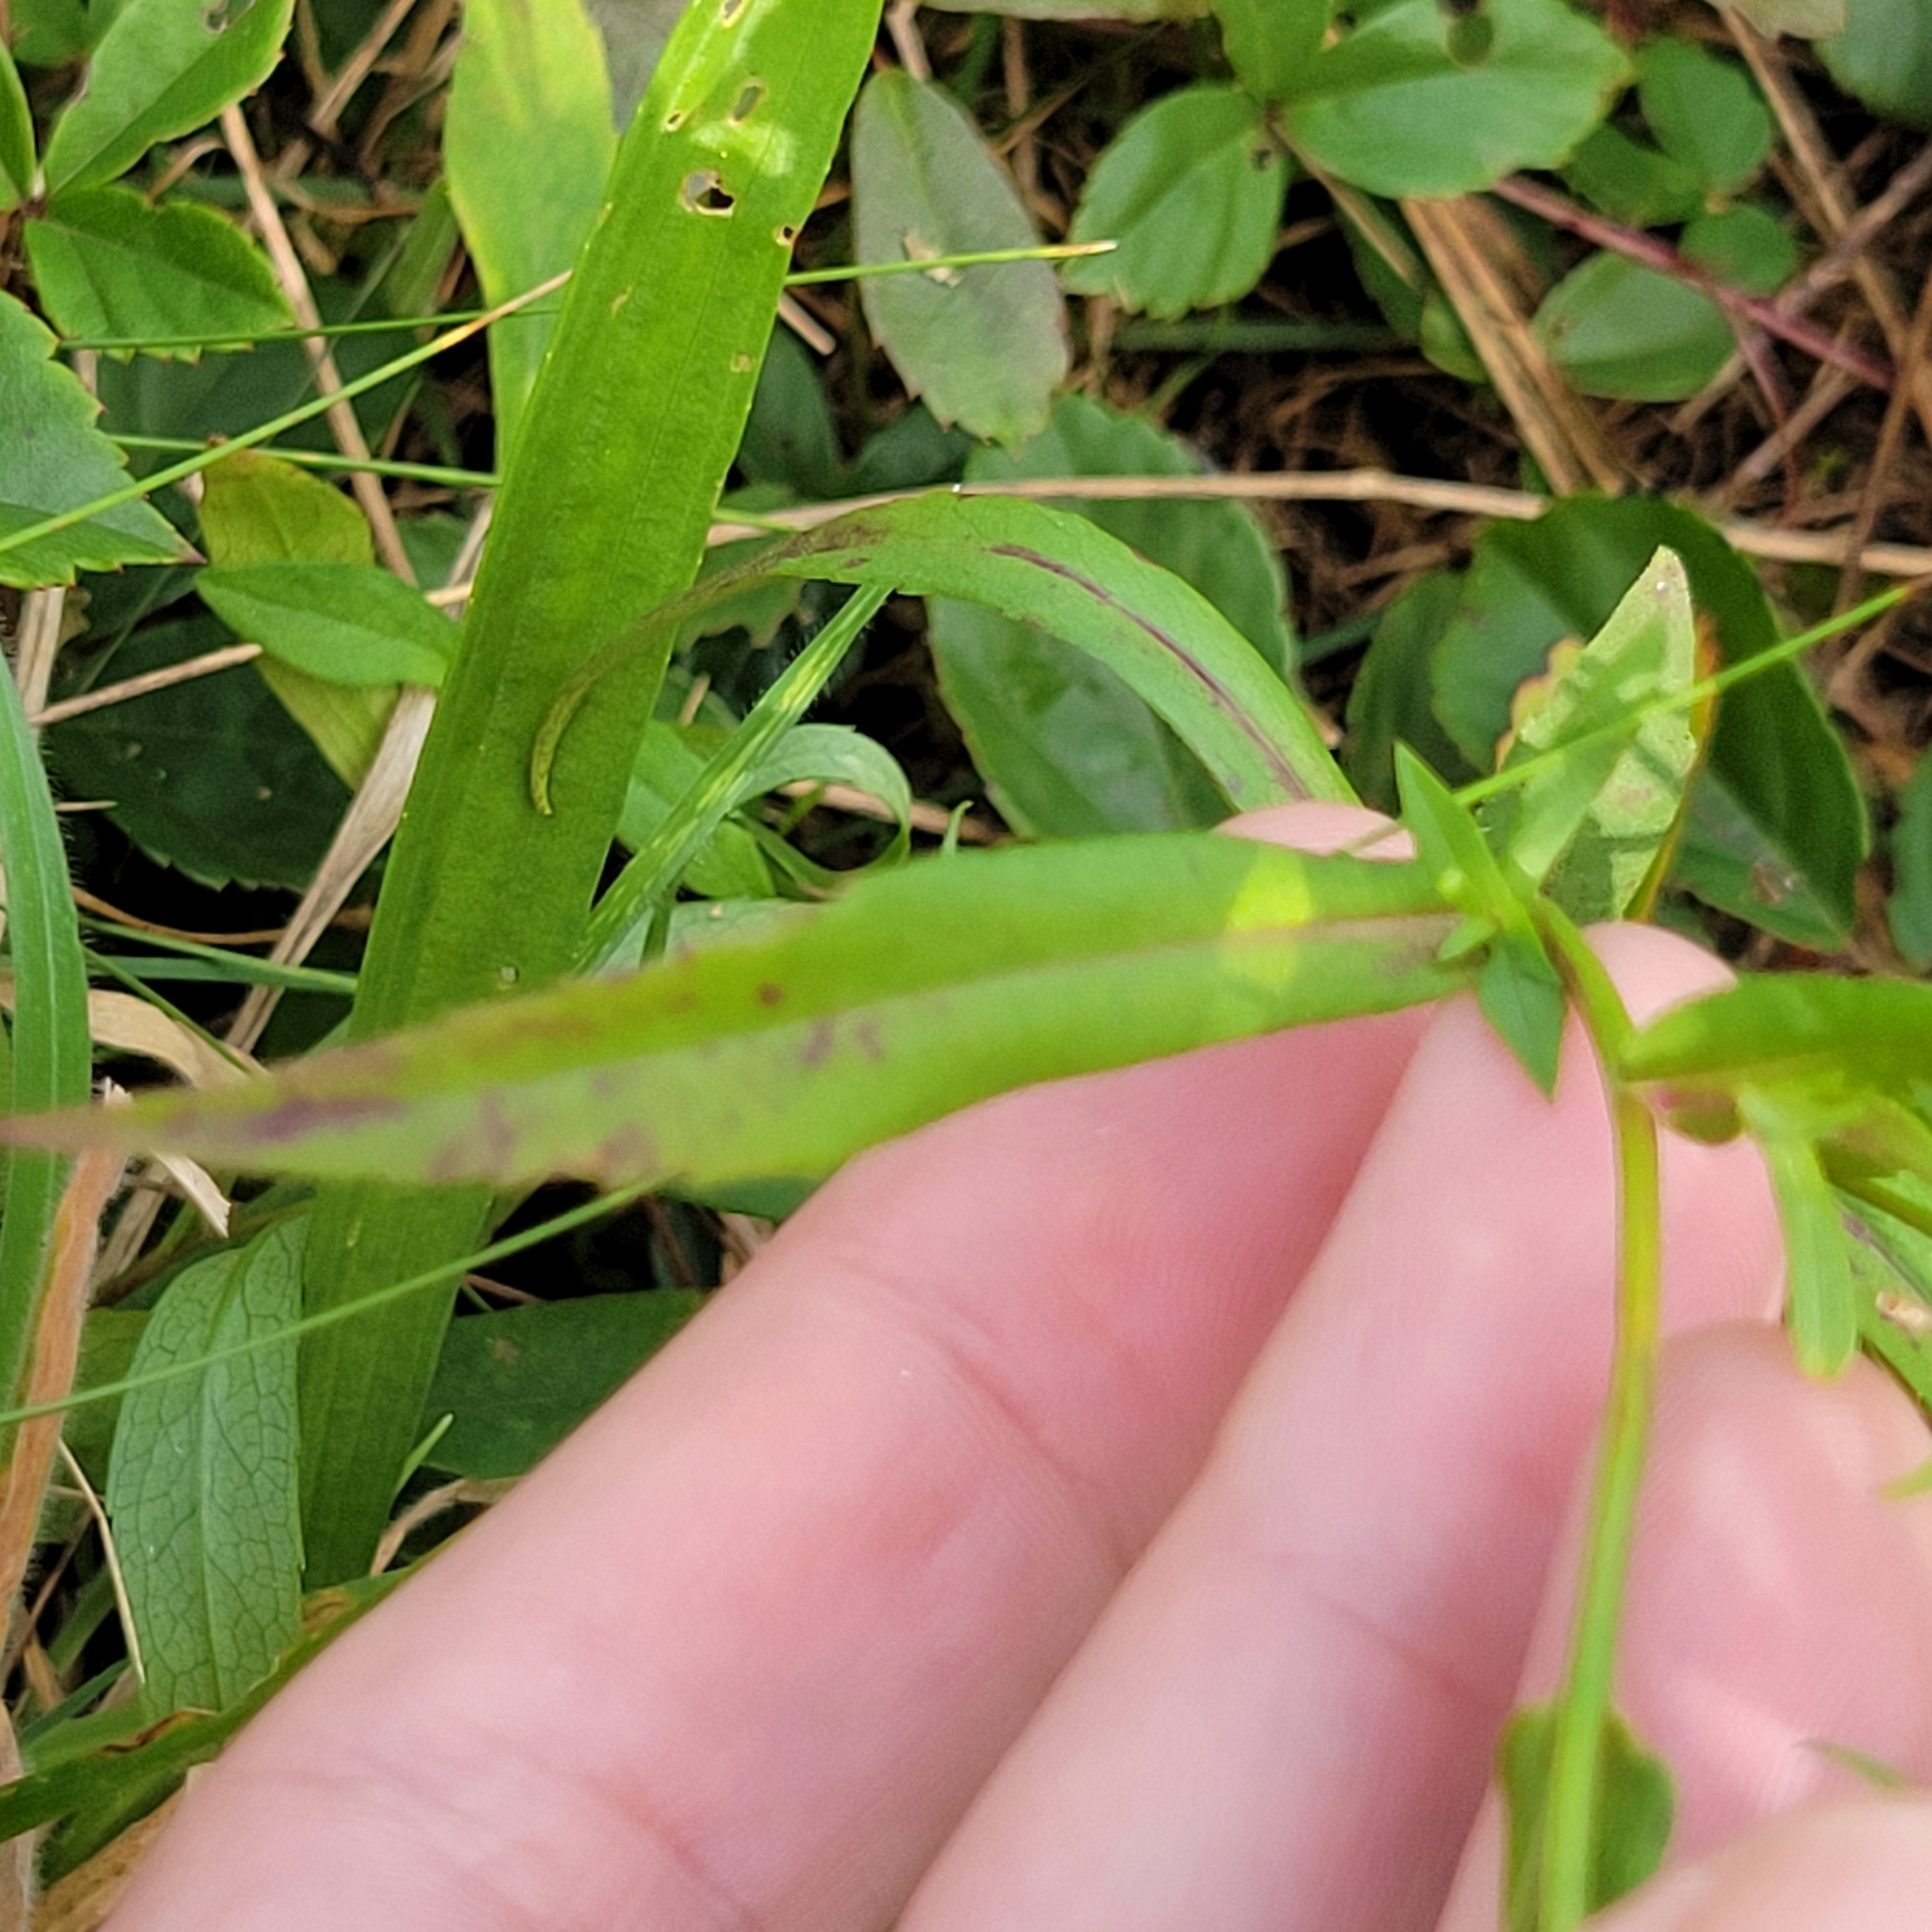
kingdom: Plantae
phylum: Tracheophyta
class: Magnoliopsida
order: Asterales
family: Asteraceae
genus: Symphyotrichum
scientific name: Symphyotrichum novi-belgii
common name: Michaelmas daisy
